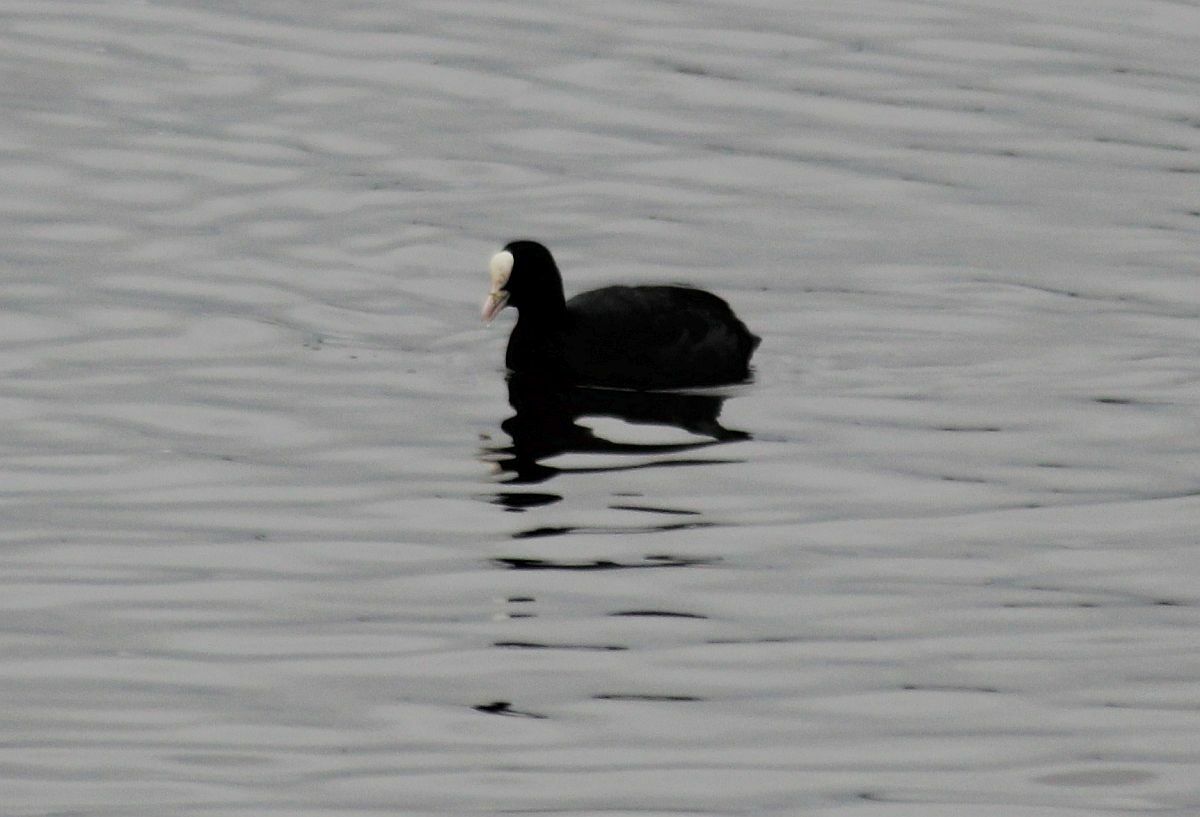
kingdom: Animalia
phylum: Chordata
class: Aves
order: Gruiformes
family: Rallidae
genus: Fulica
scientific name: Fulica atra
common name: Eurasian coot
